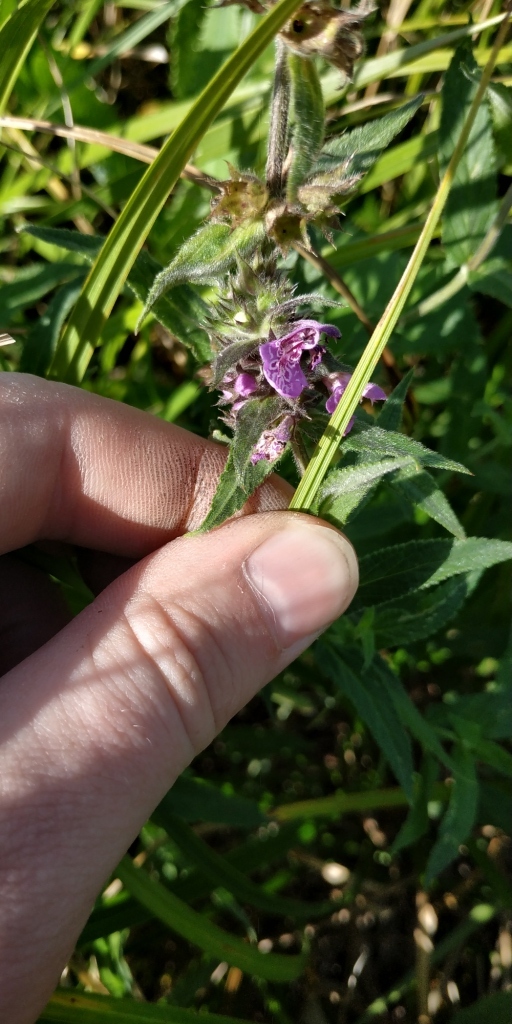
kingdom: Plantae
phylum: Tracheophyta
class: Magnoliopsida
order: Lamiales
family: Lamiaceae
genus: Stachys
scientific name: Stachys palustris
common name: Marsh woundwort
